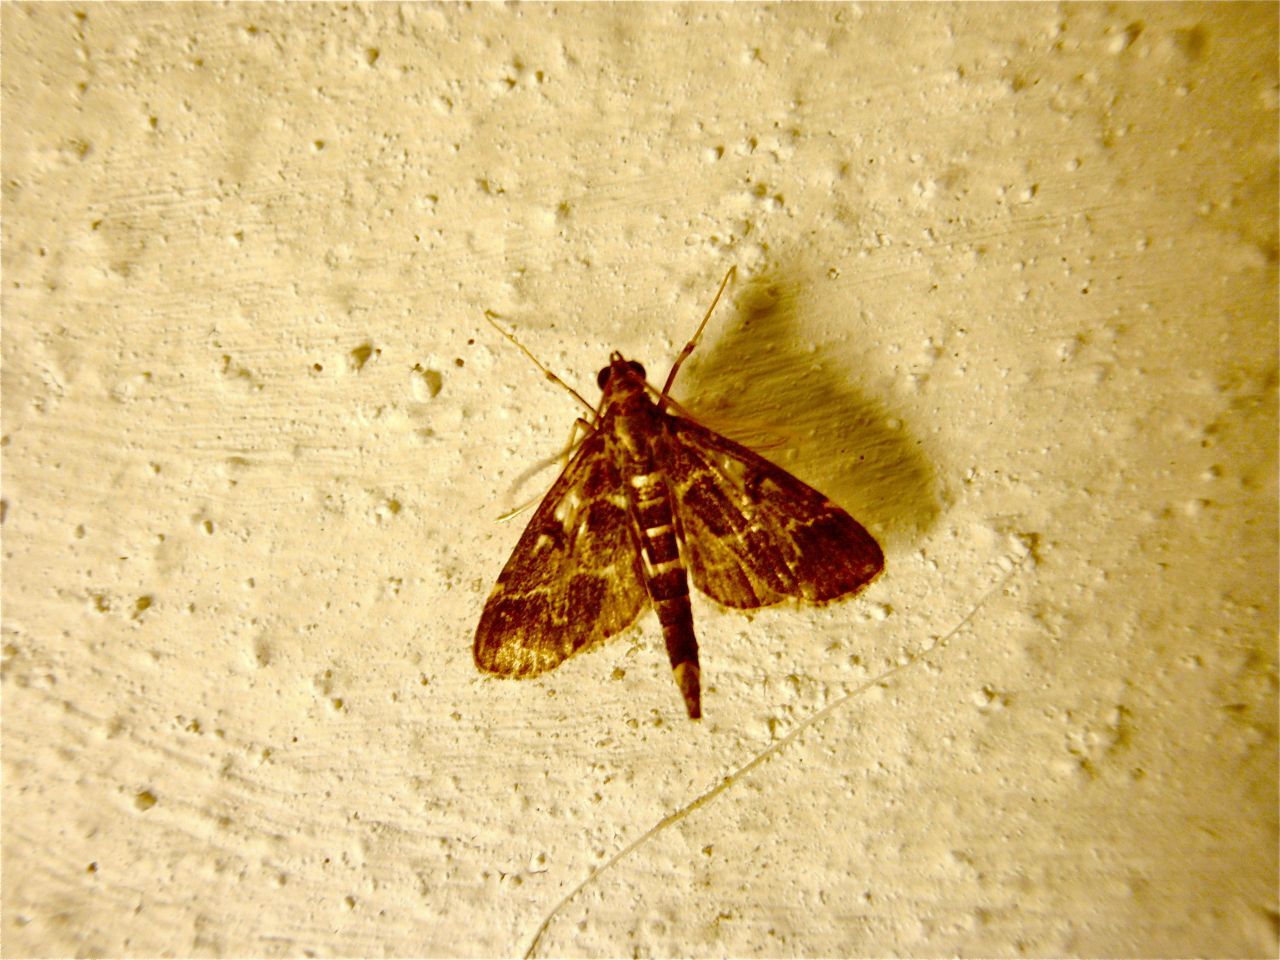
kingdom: Animalia
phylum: Arthropoda
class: Insecta
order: Lepidoptera
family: Crambidae
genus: Duponchelia
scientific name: Duponchelia fovealis
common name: Crambid moth
